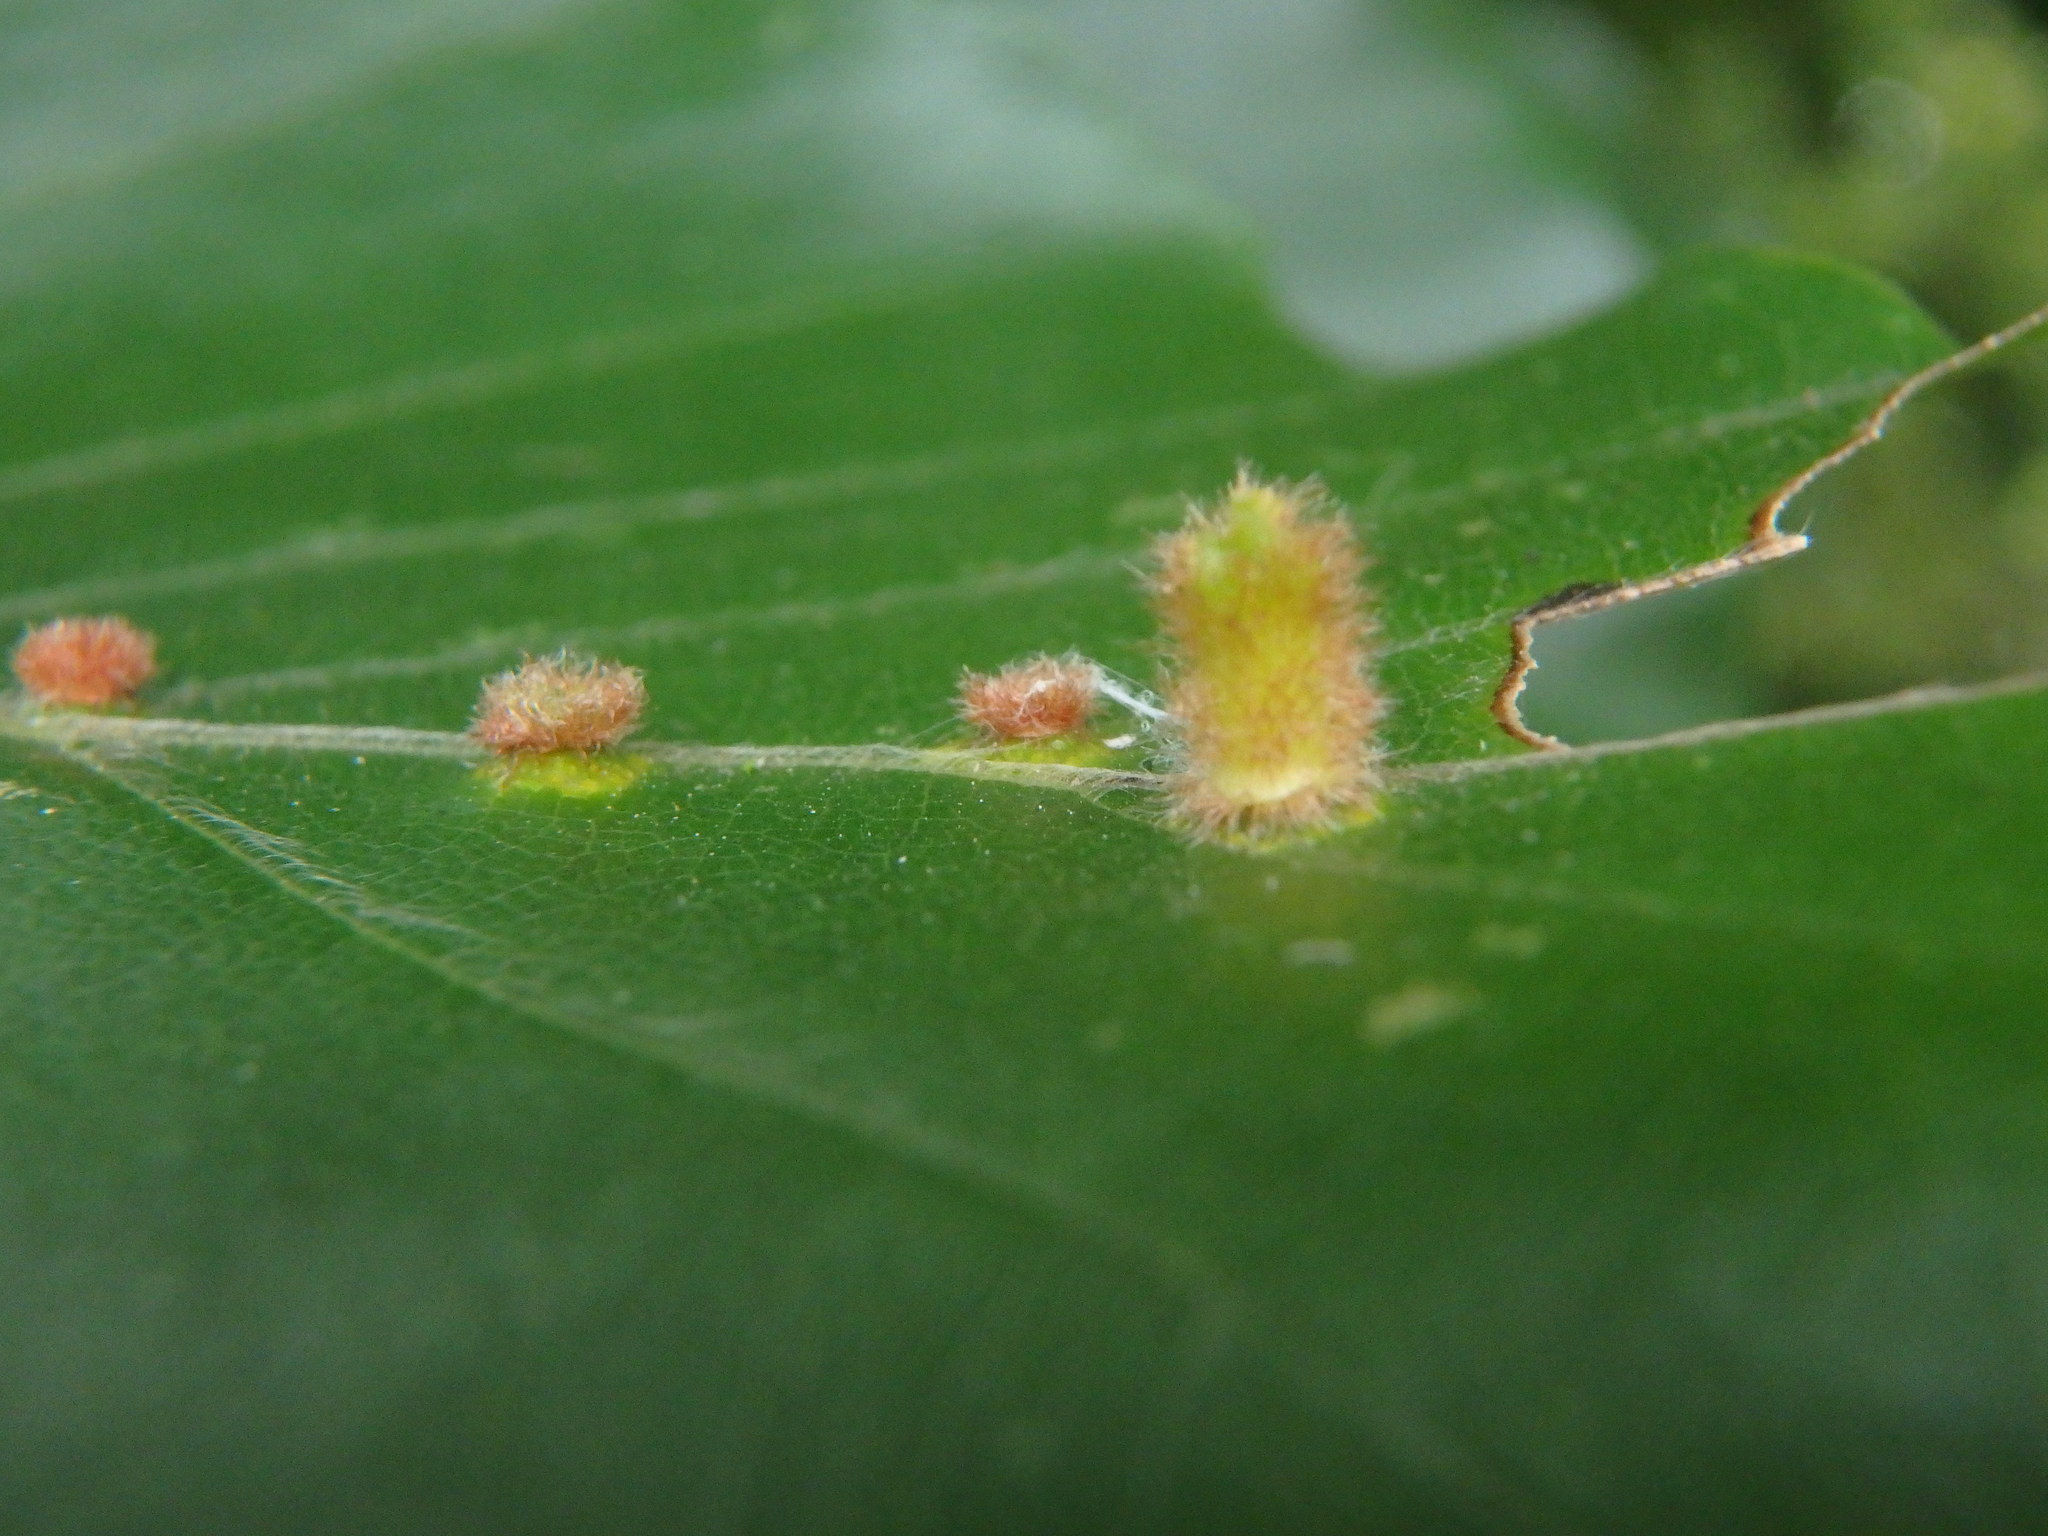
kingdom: Animalia
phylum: Arthropoda
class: Insecta
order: Diptera
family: Cecidomyiidae
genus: Hartigiola
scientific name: Hartigiola annulipes
